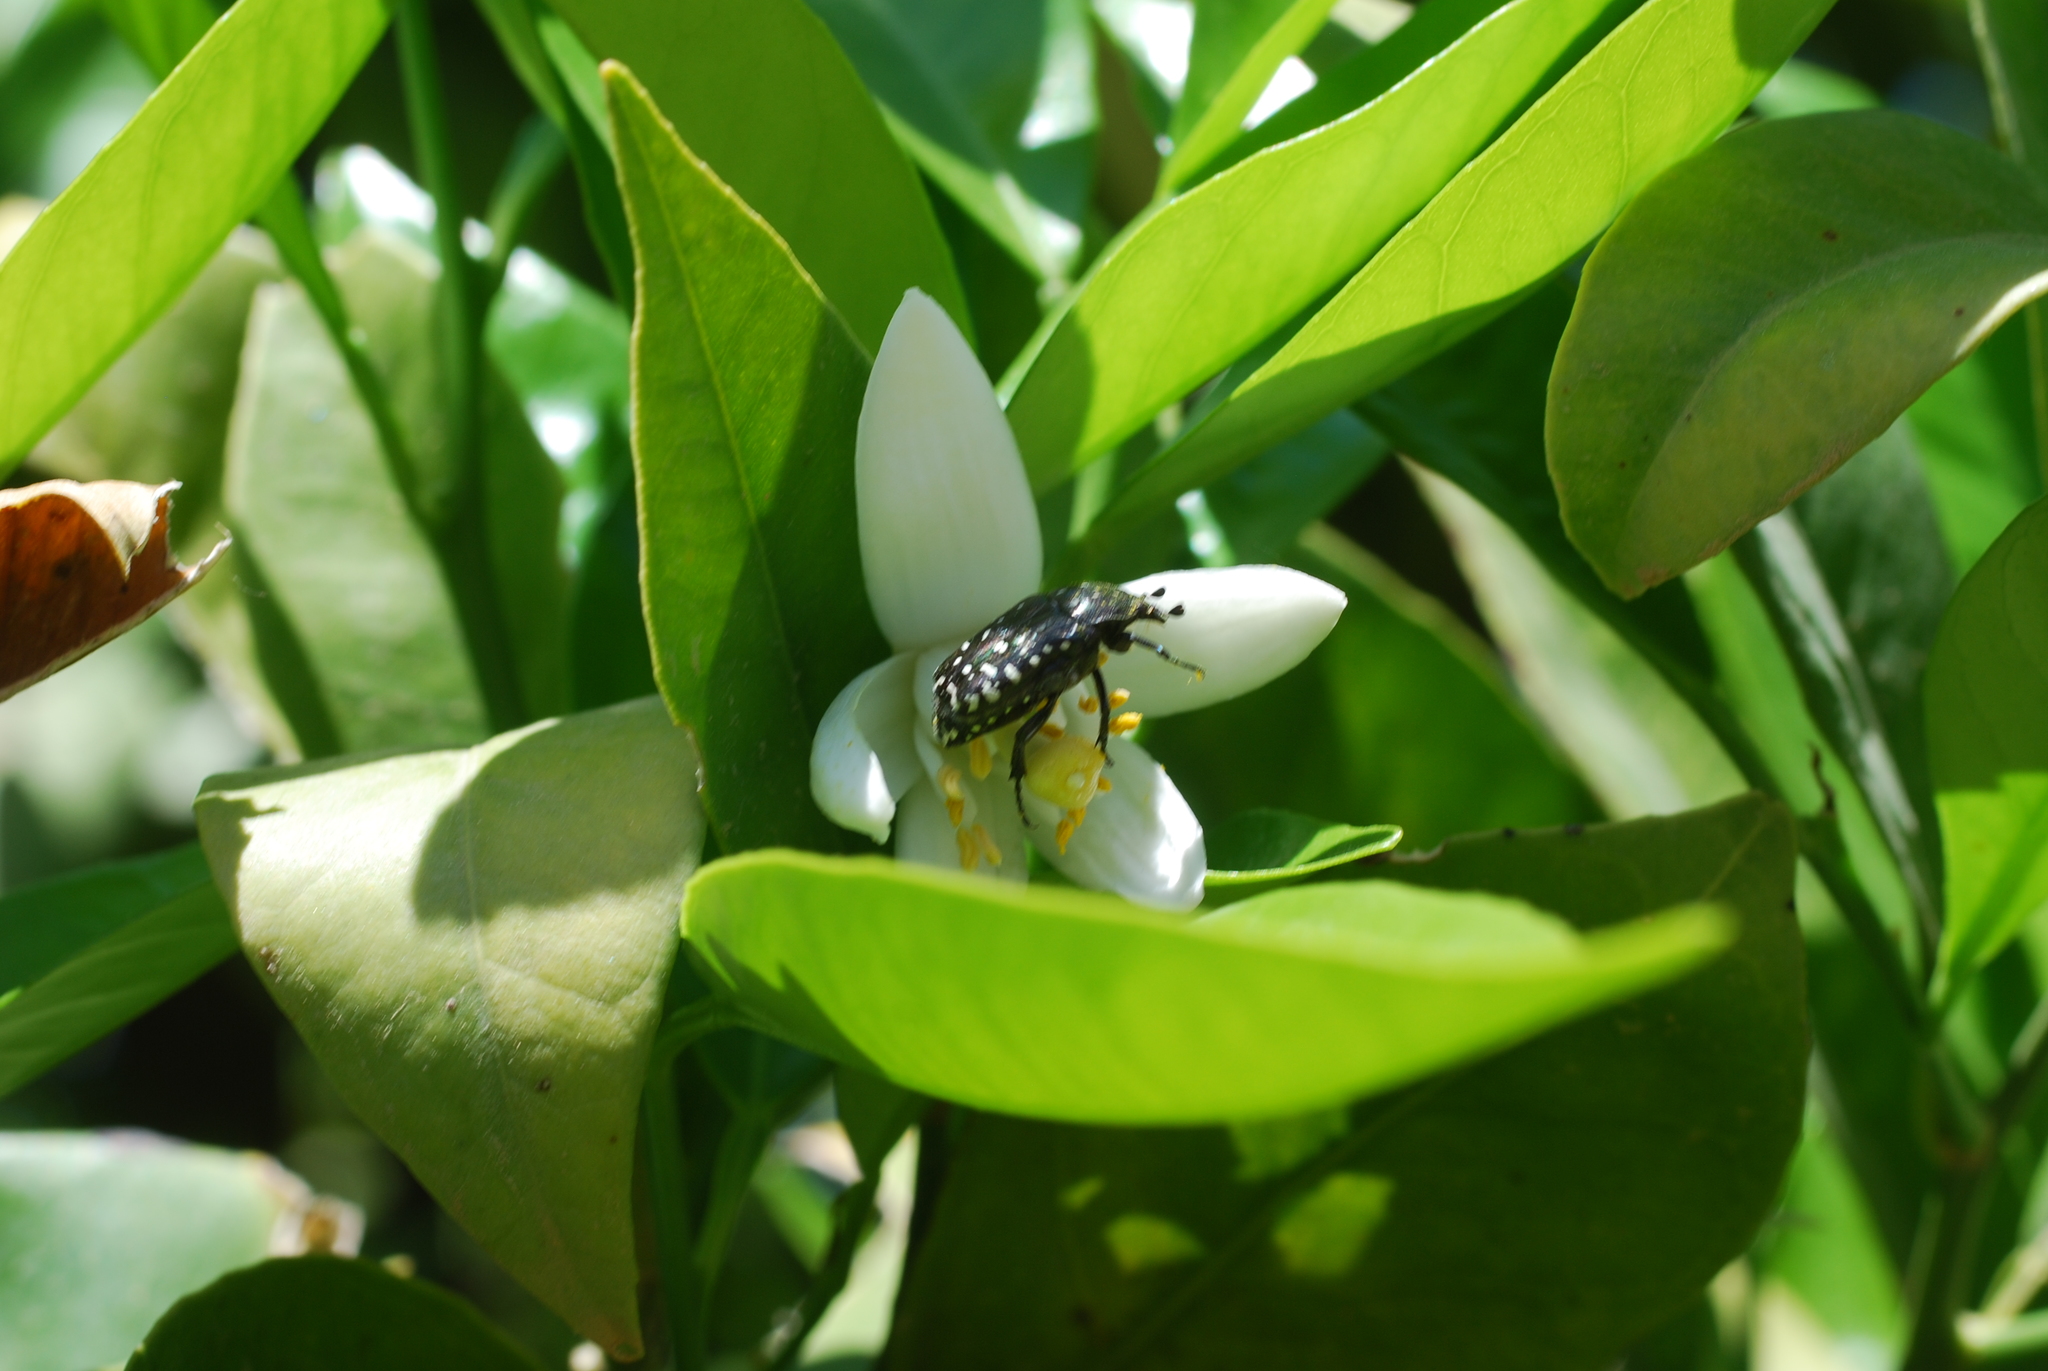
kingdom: Animalia
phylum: Arthropoda
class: Insecta
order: Coleoptera
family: Scarabaeidae
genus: Oxythyrea
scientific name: Oxythyrea funesta
